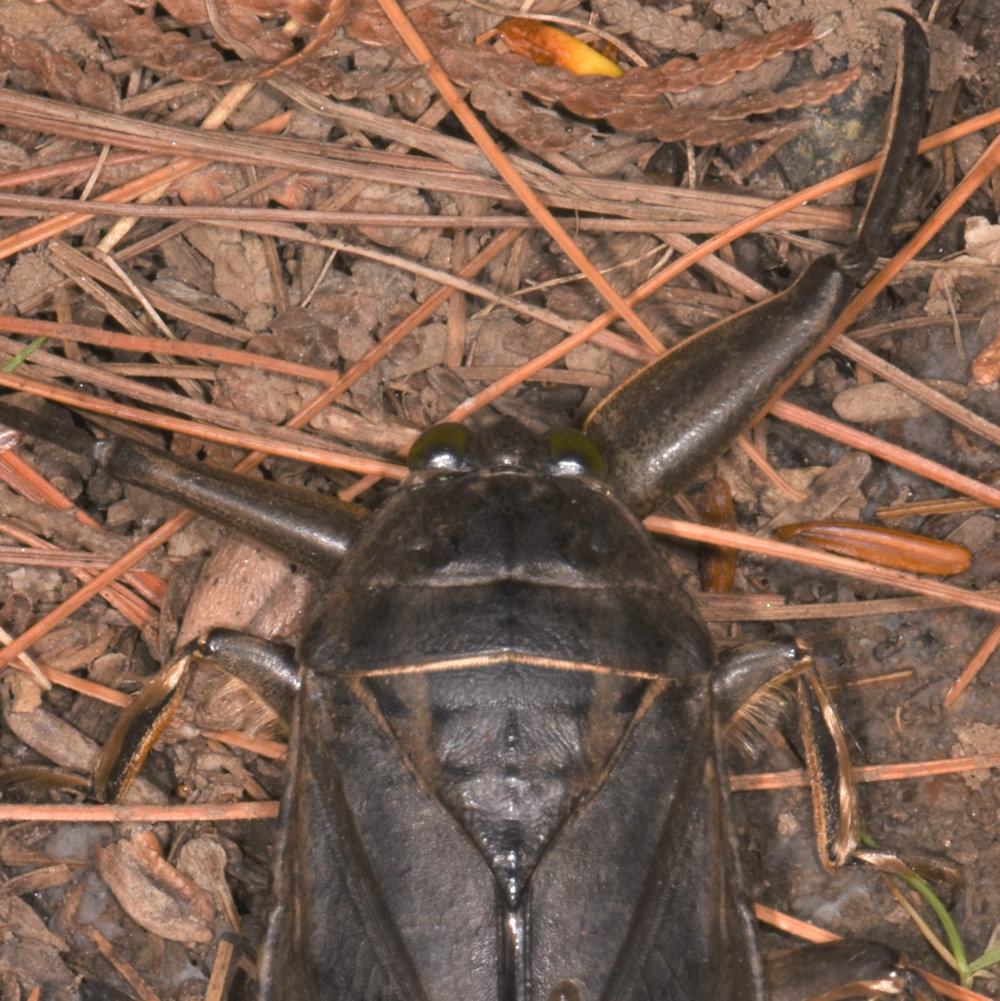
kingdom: Animalia
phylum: Arthropoda
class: Insecta
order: Hemiptera
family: Belostomatidae
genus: Lethocerus
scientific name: Lethocerus americanus
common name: Giant water bug
